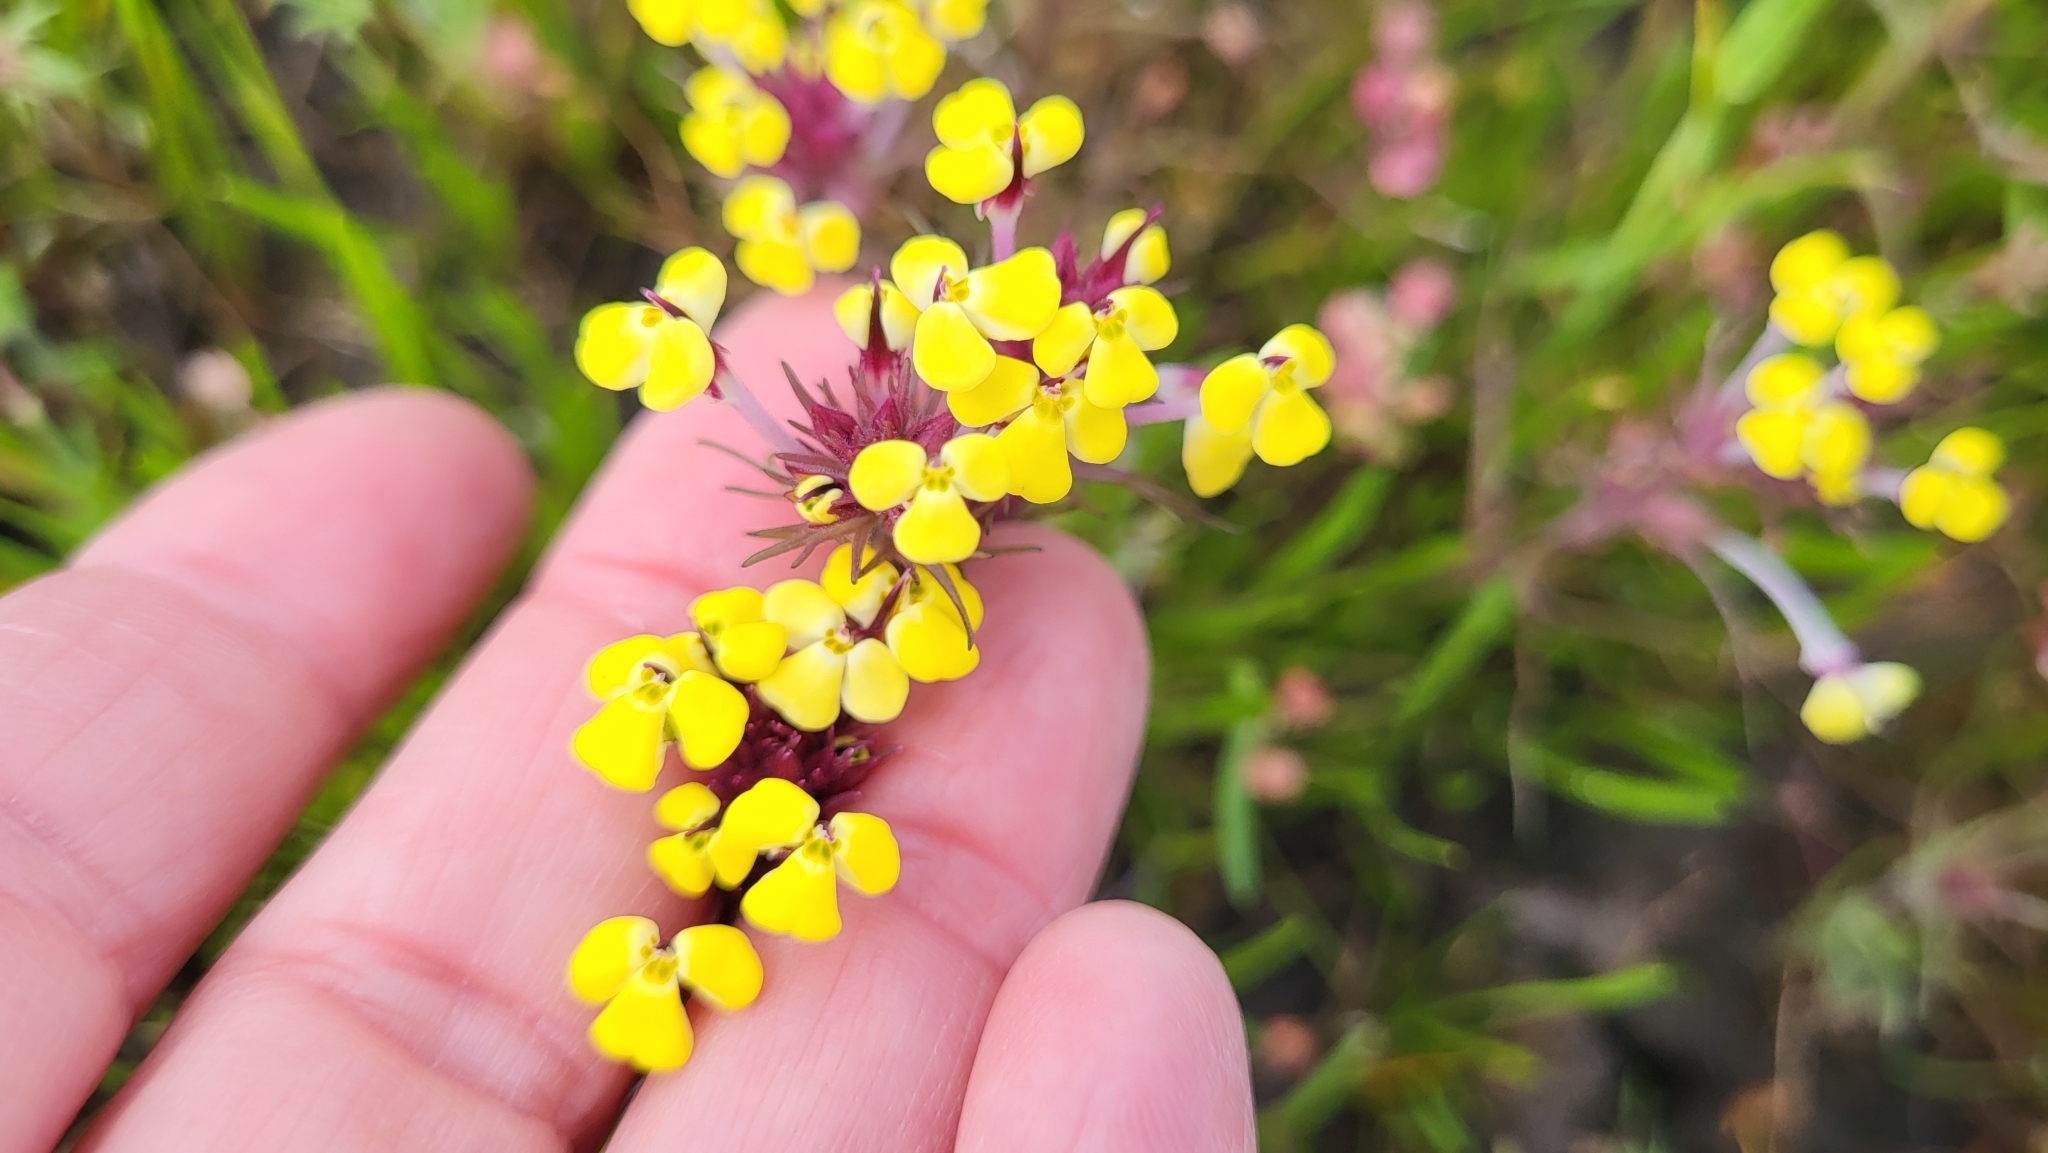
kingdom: Plantae
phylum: Tracheophyta
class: Magnoliopsida
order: Lamiales
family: Orobanchaceae
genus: Triphysaria
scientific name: Triphysaria eriantha
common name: Johnny-tuck
